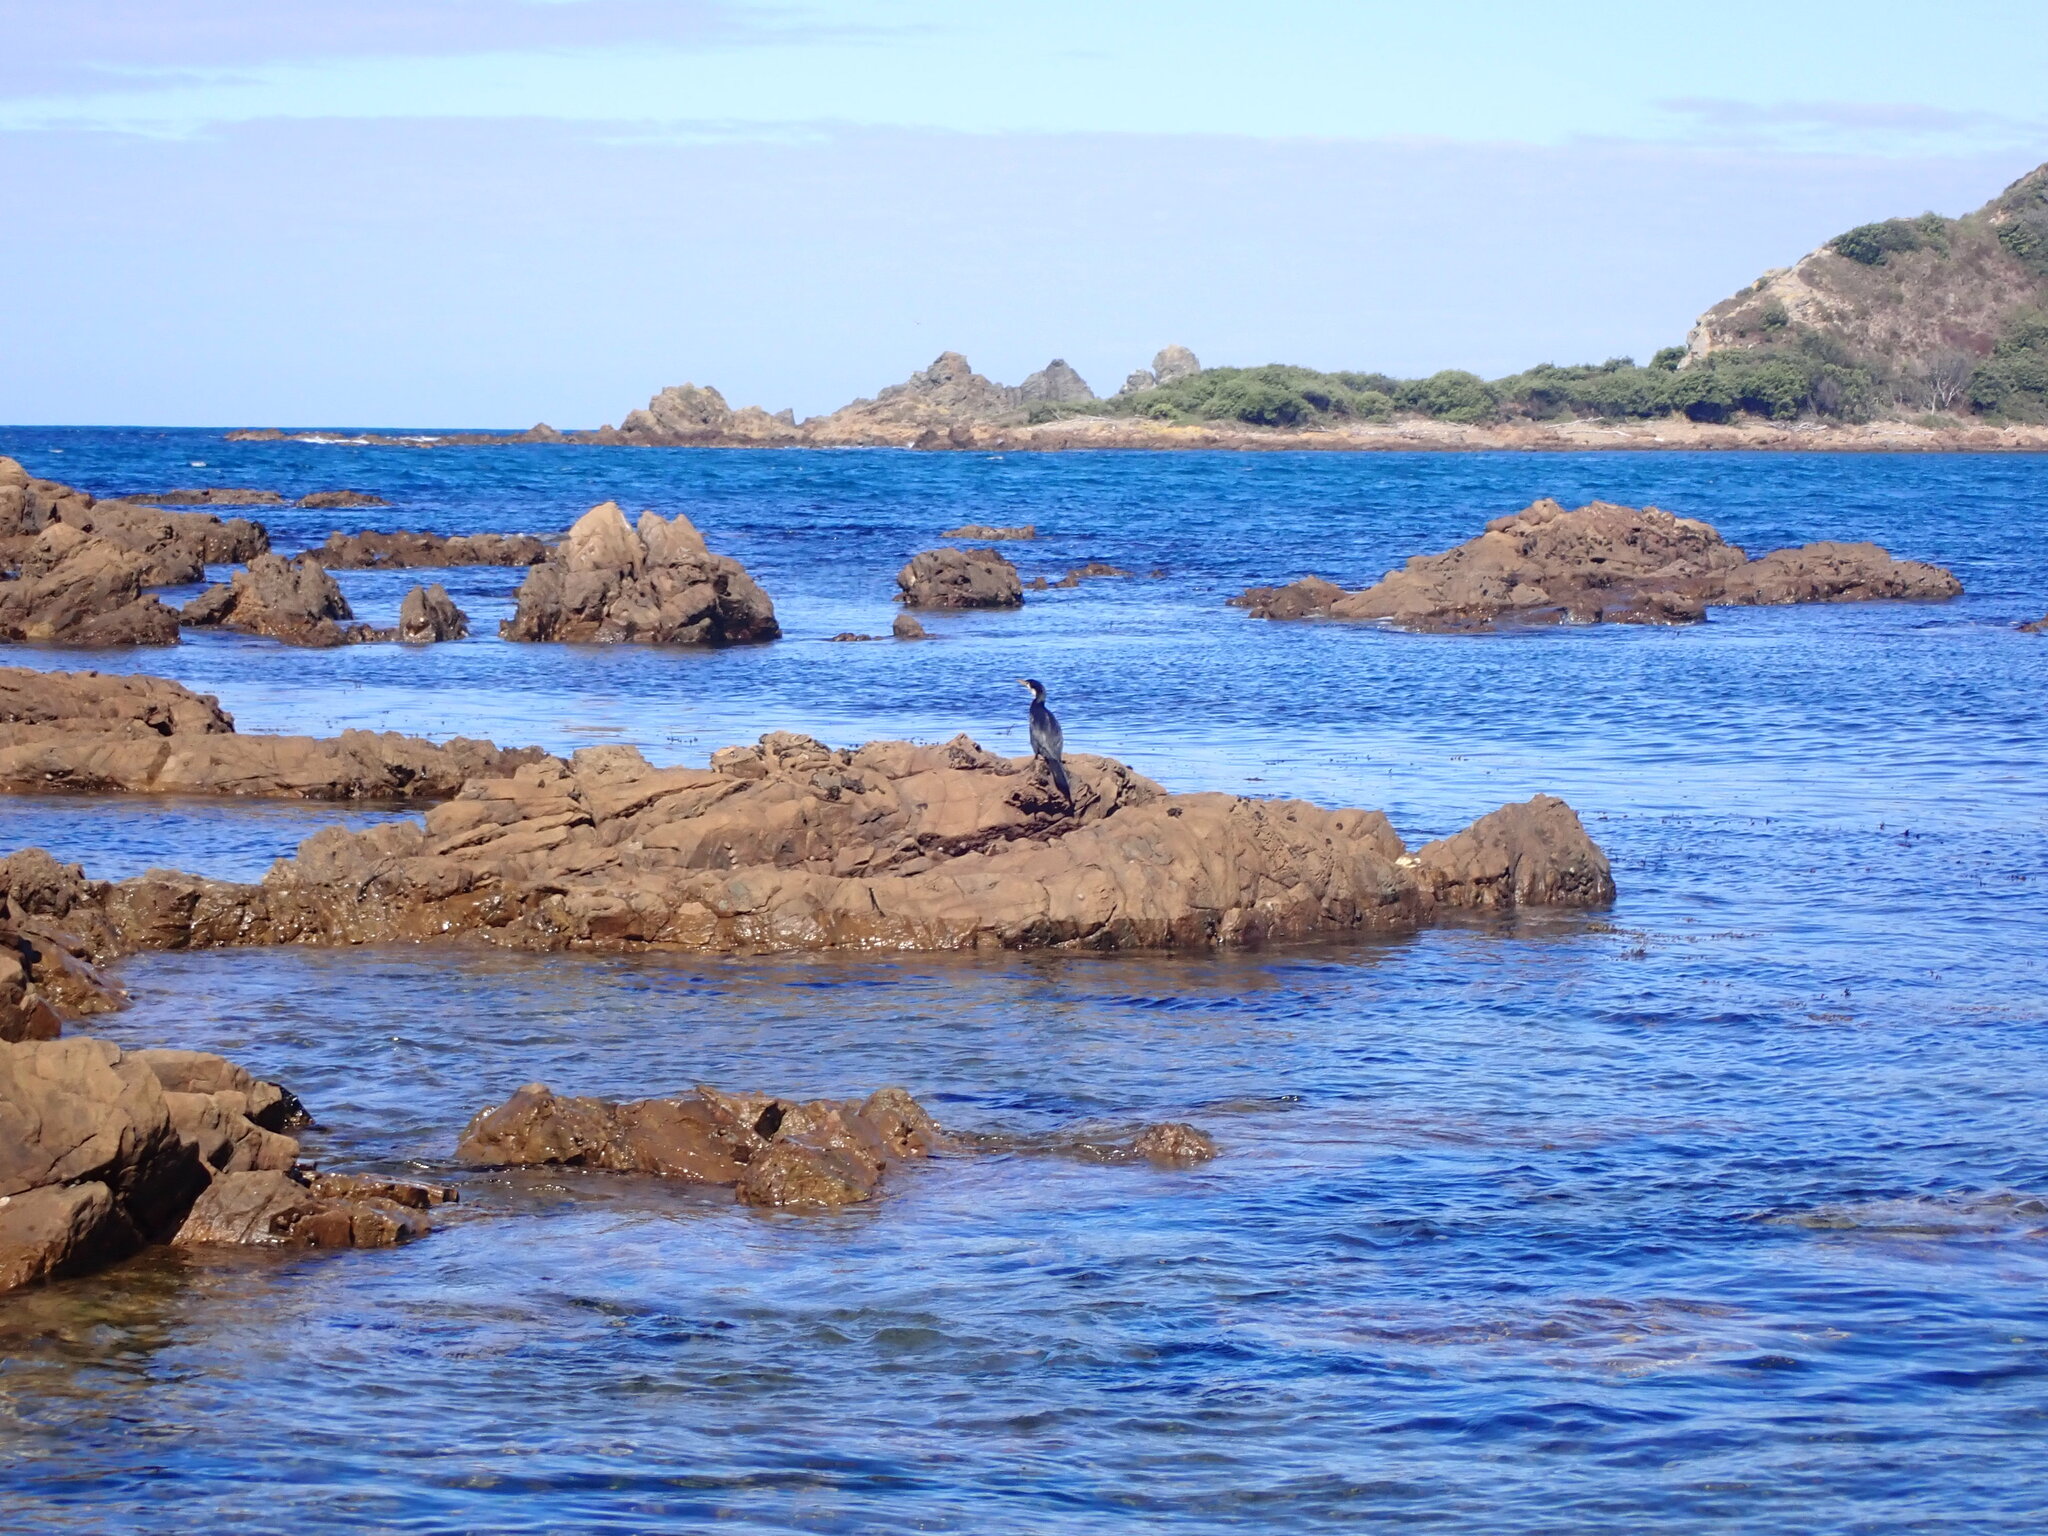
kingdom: Animalia
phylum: Chordata
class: Aves
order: Suliformes
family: Phalacrocoracidae
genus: Microcarbo
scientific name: Microcarbo melanoleucos
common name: Little pied cormorant
